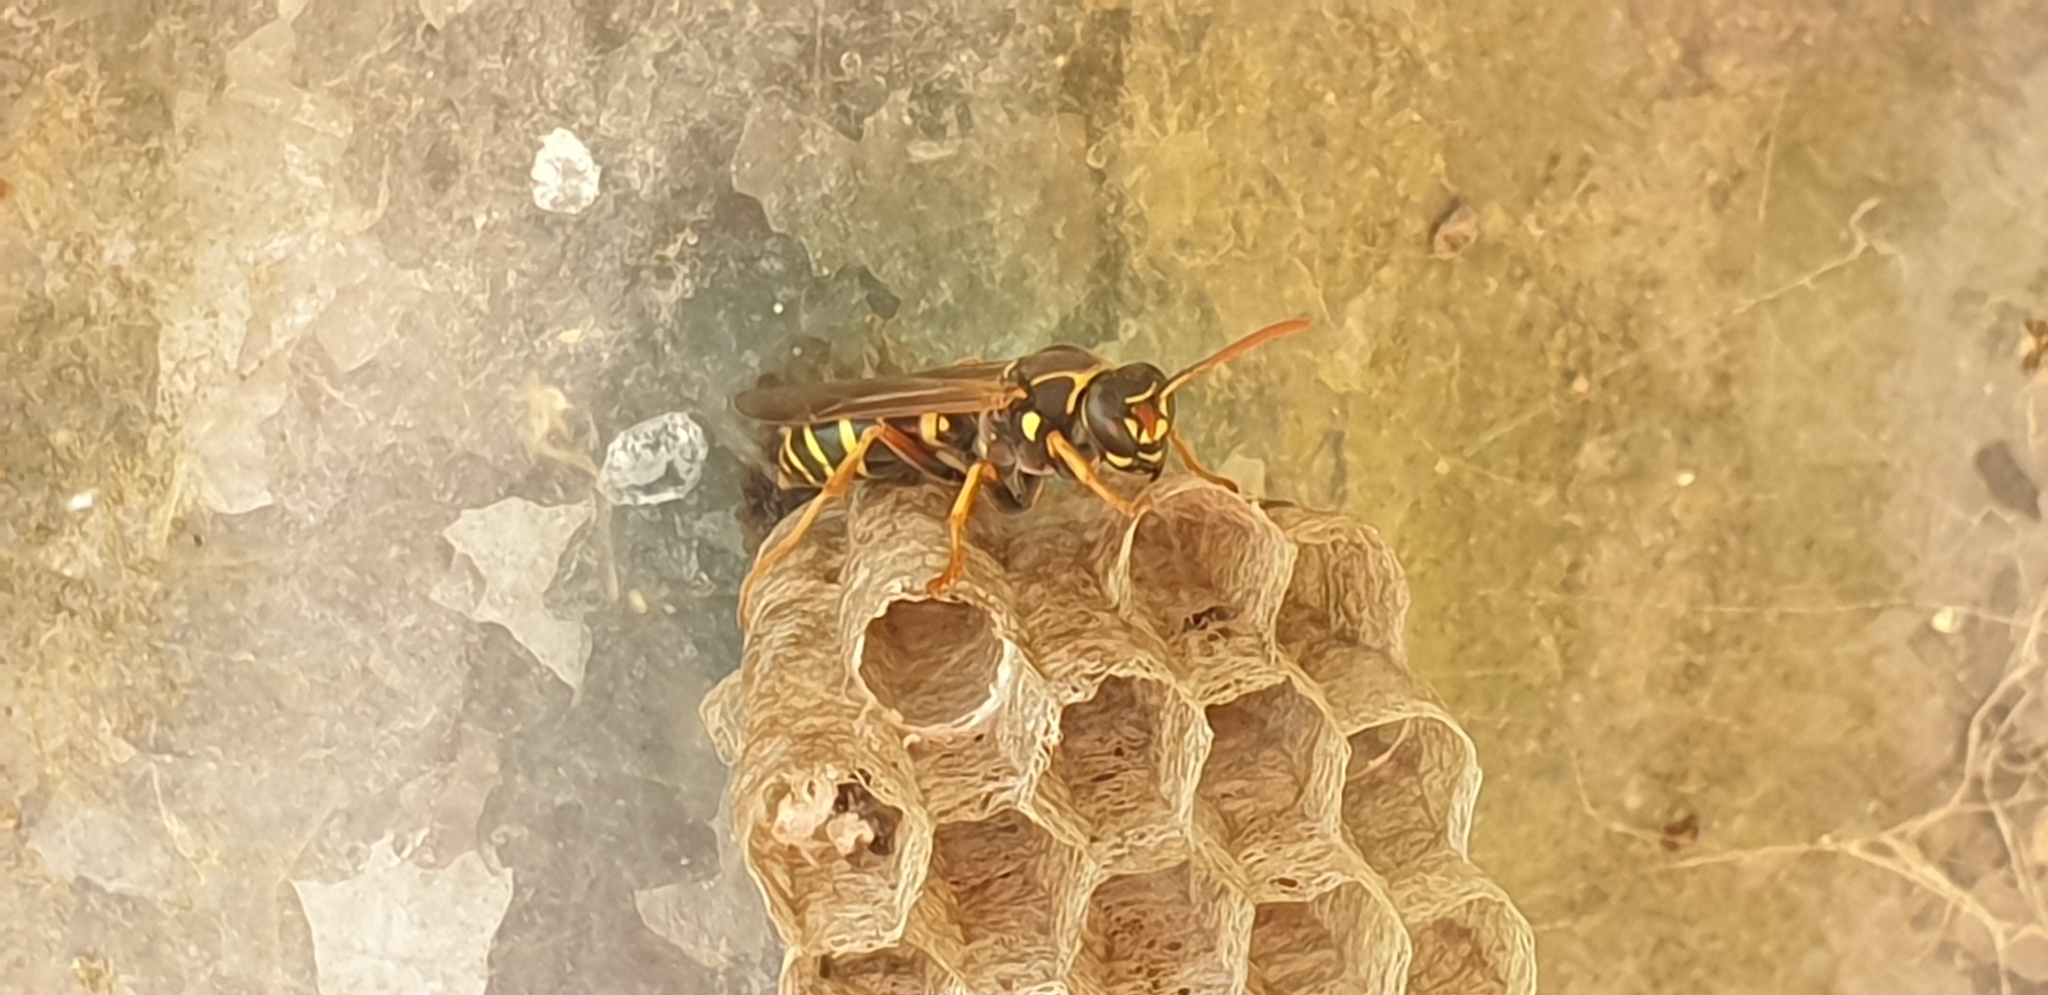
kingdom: Animalia
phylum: Arthropoda
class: Insecta
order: Hymenoptera
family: Eumenidae
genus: Polistes
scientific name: Polistes chinensis
